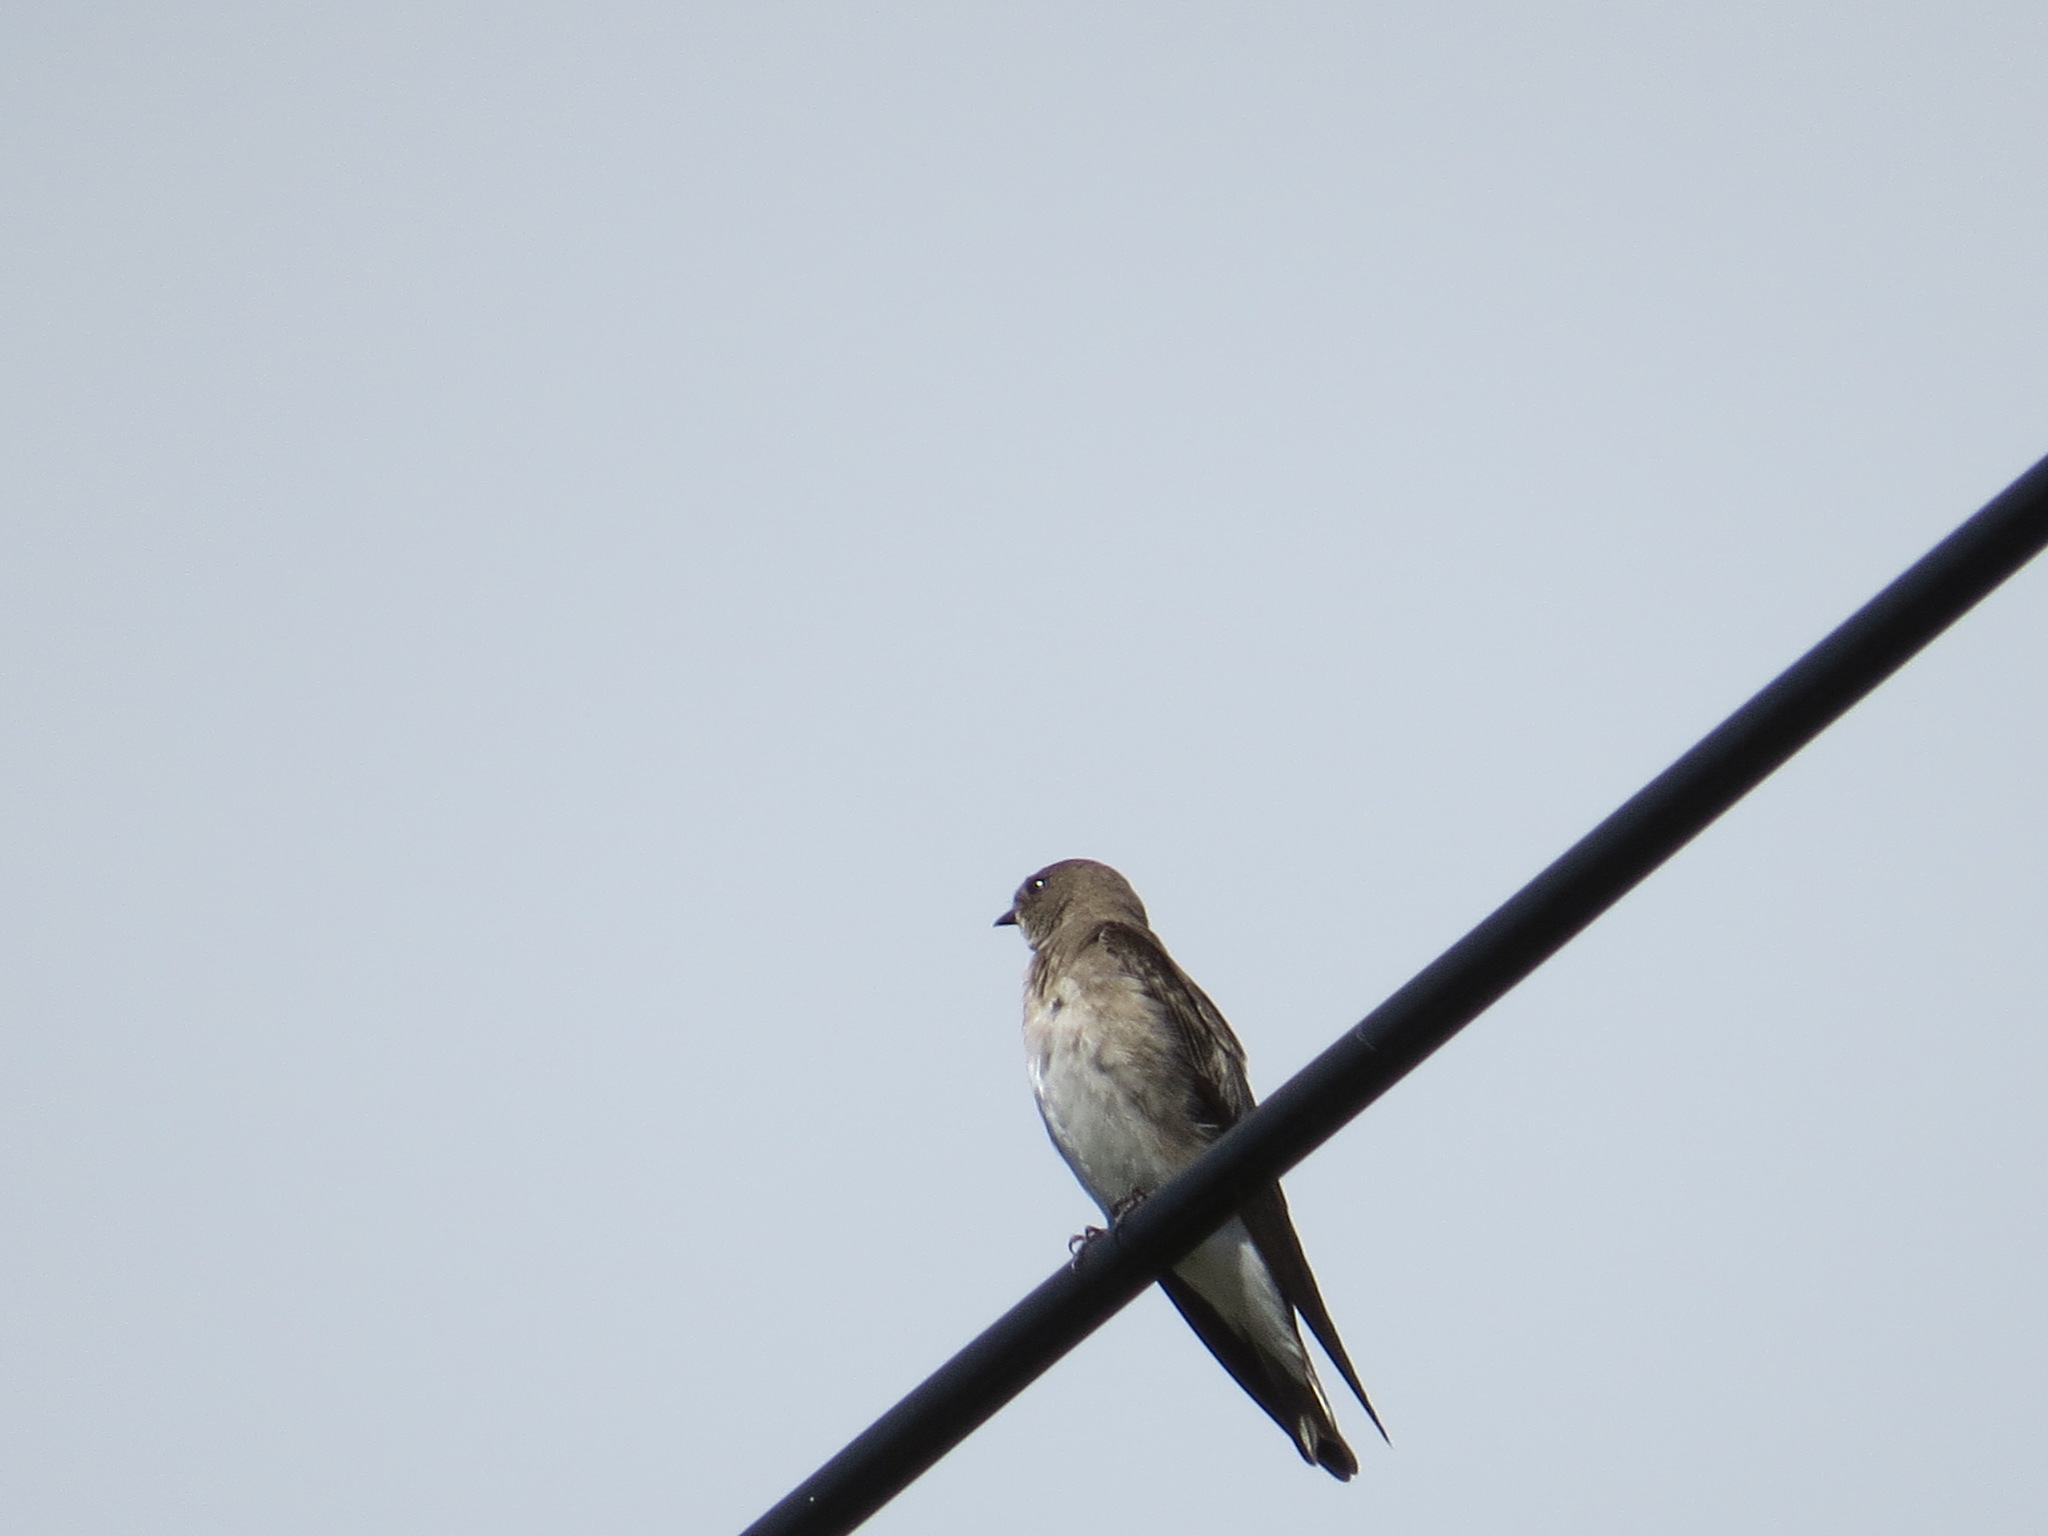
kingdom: Animalia
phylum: Chordata
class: Aves
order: Passeriformes
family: Hirundinidae
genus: Stelgidopteryx
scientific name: Stelgidopteryx serripennis
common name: Northern rough-winged swallow
